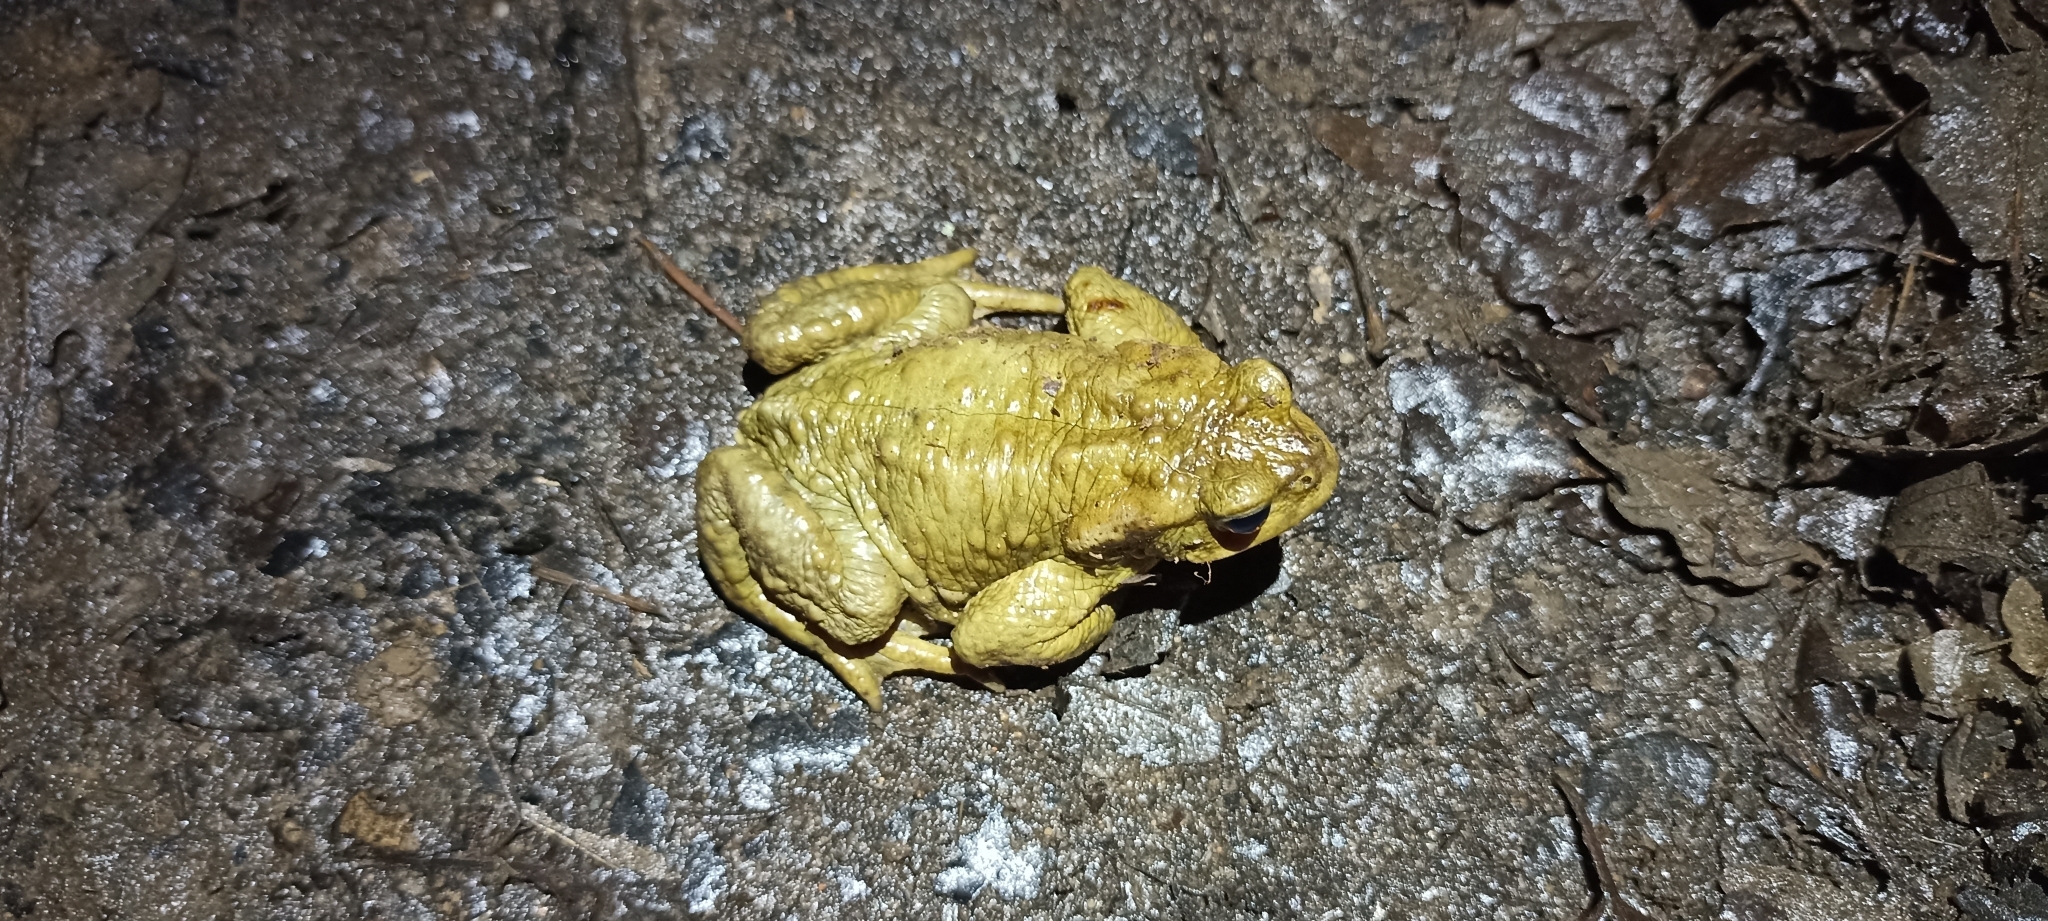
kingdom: Animalia
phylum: Chordata
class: Amphibia
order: Anura
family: Bufonidae
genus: Bufo
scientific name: Bufo spinosus
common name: Western common toad
